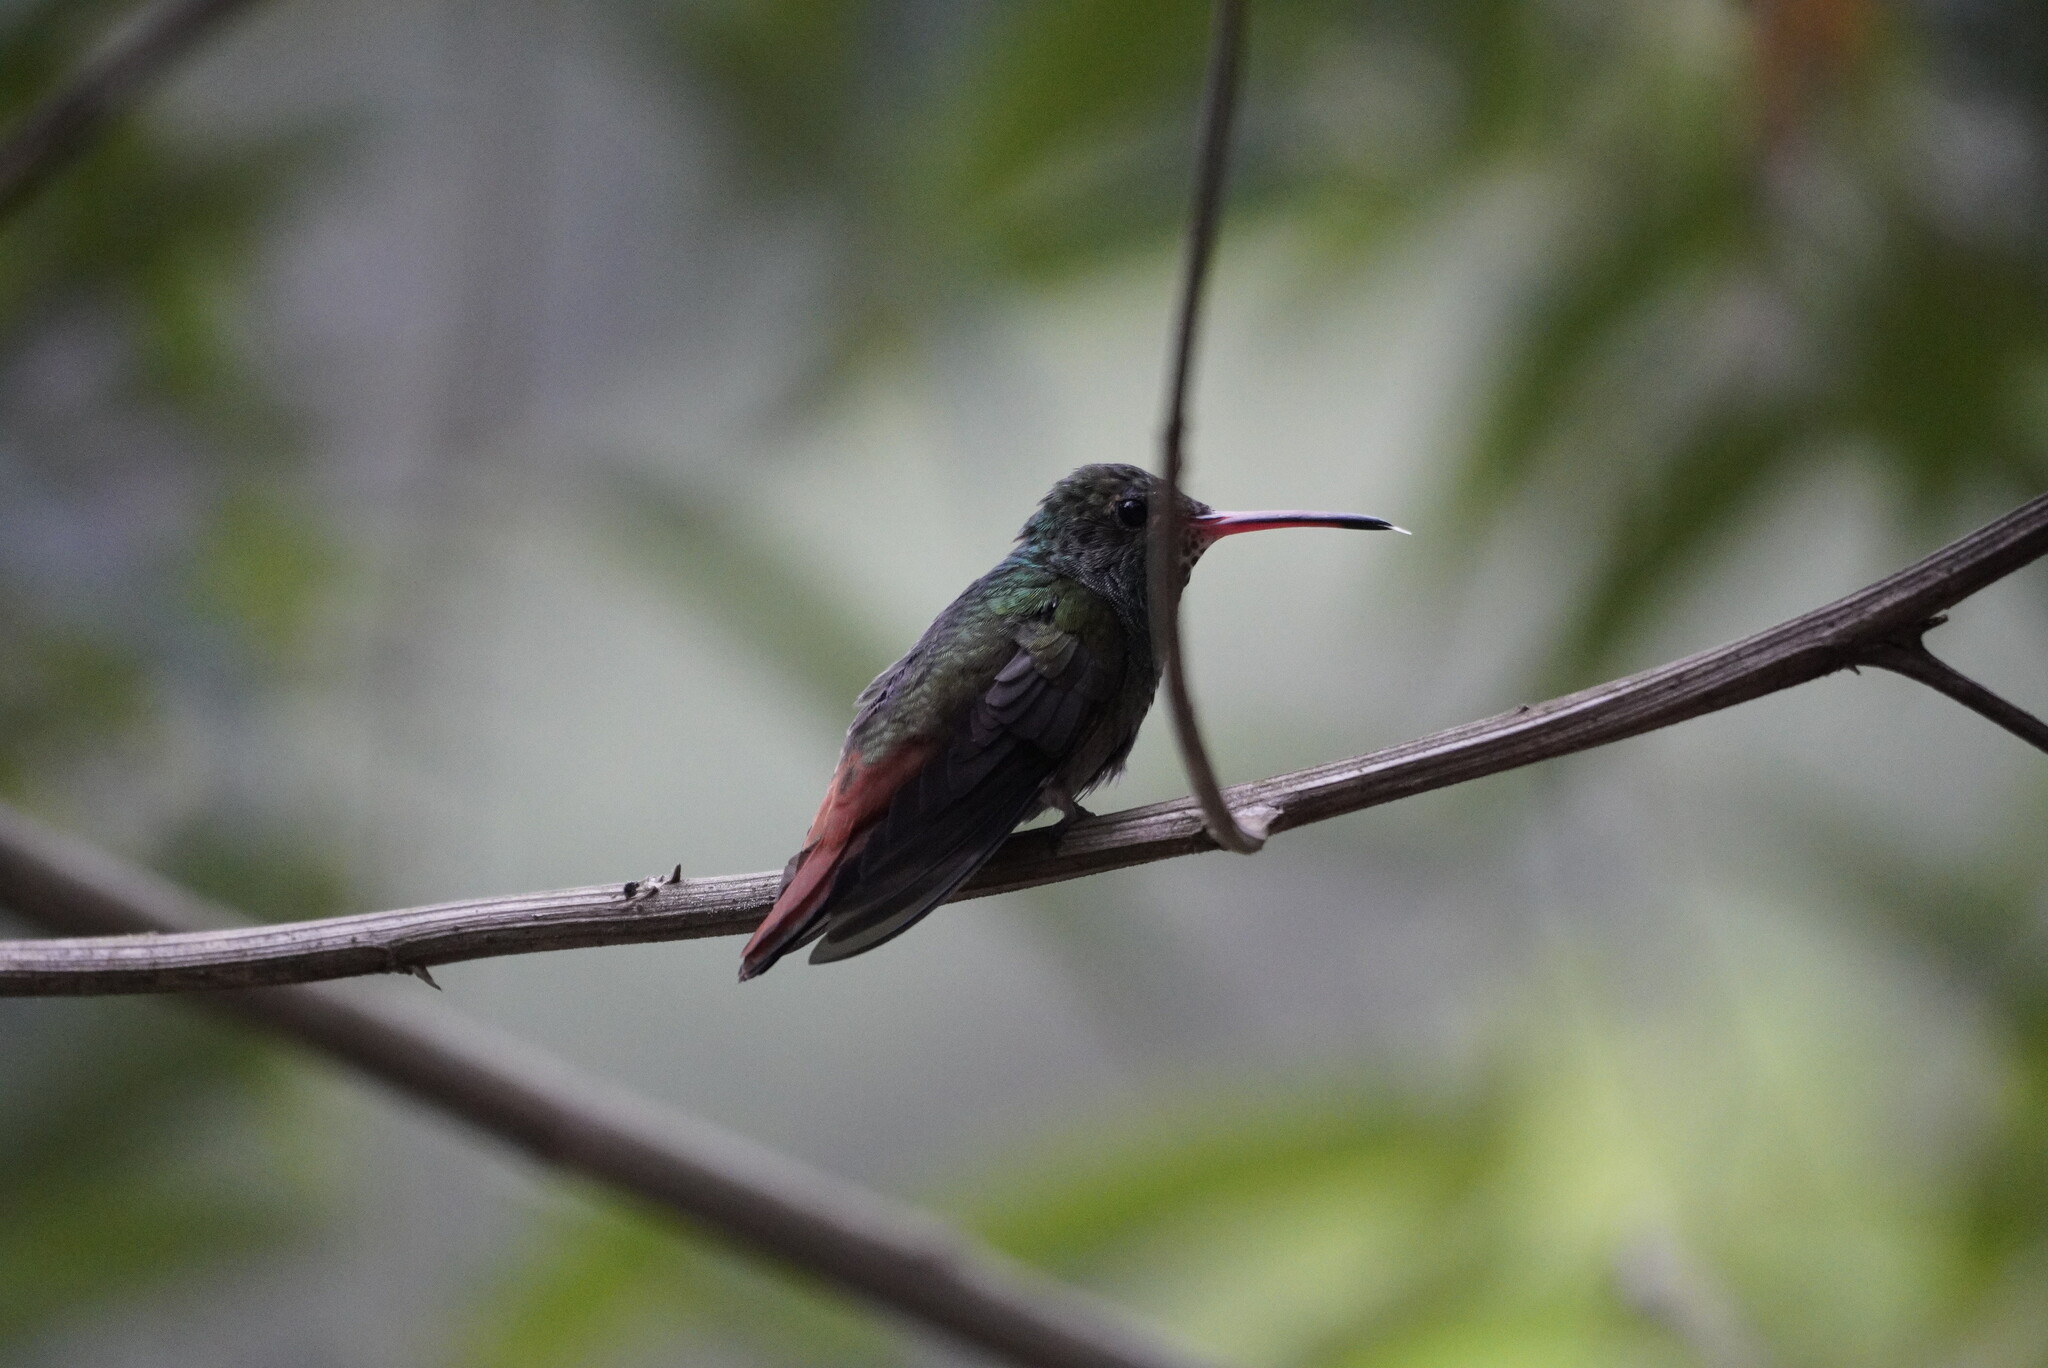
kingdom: Animalia
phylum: Chordata
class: Aves
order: Apodiformes
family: Trochilidae
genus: Amazilia
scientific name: Amazilia tzacatl
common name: Rufous-tailed hummingbird
